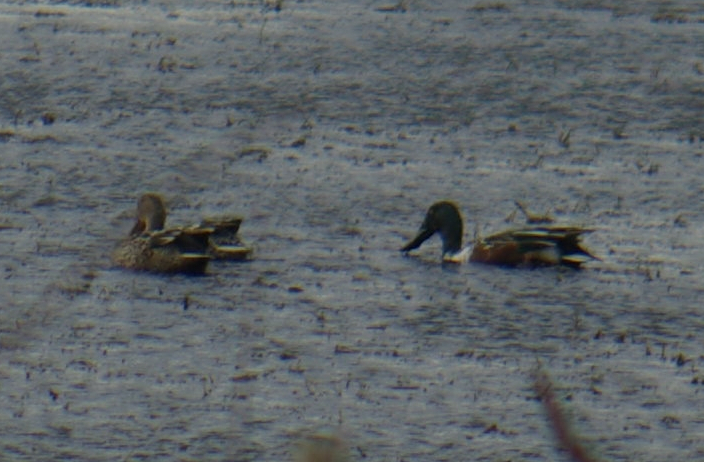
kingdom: Animalia
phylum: Chordata
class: Aves
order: Anseriformes
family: Anatidae
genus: Spatula
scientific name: Spatula clypeata
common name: Northern shoveler
